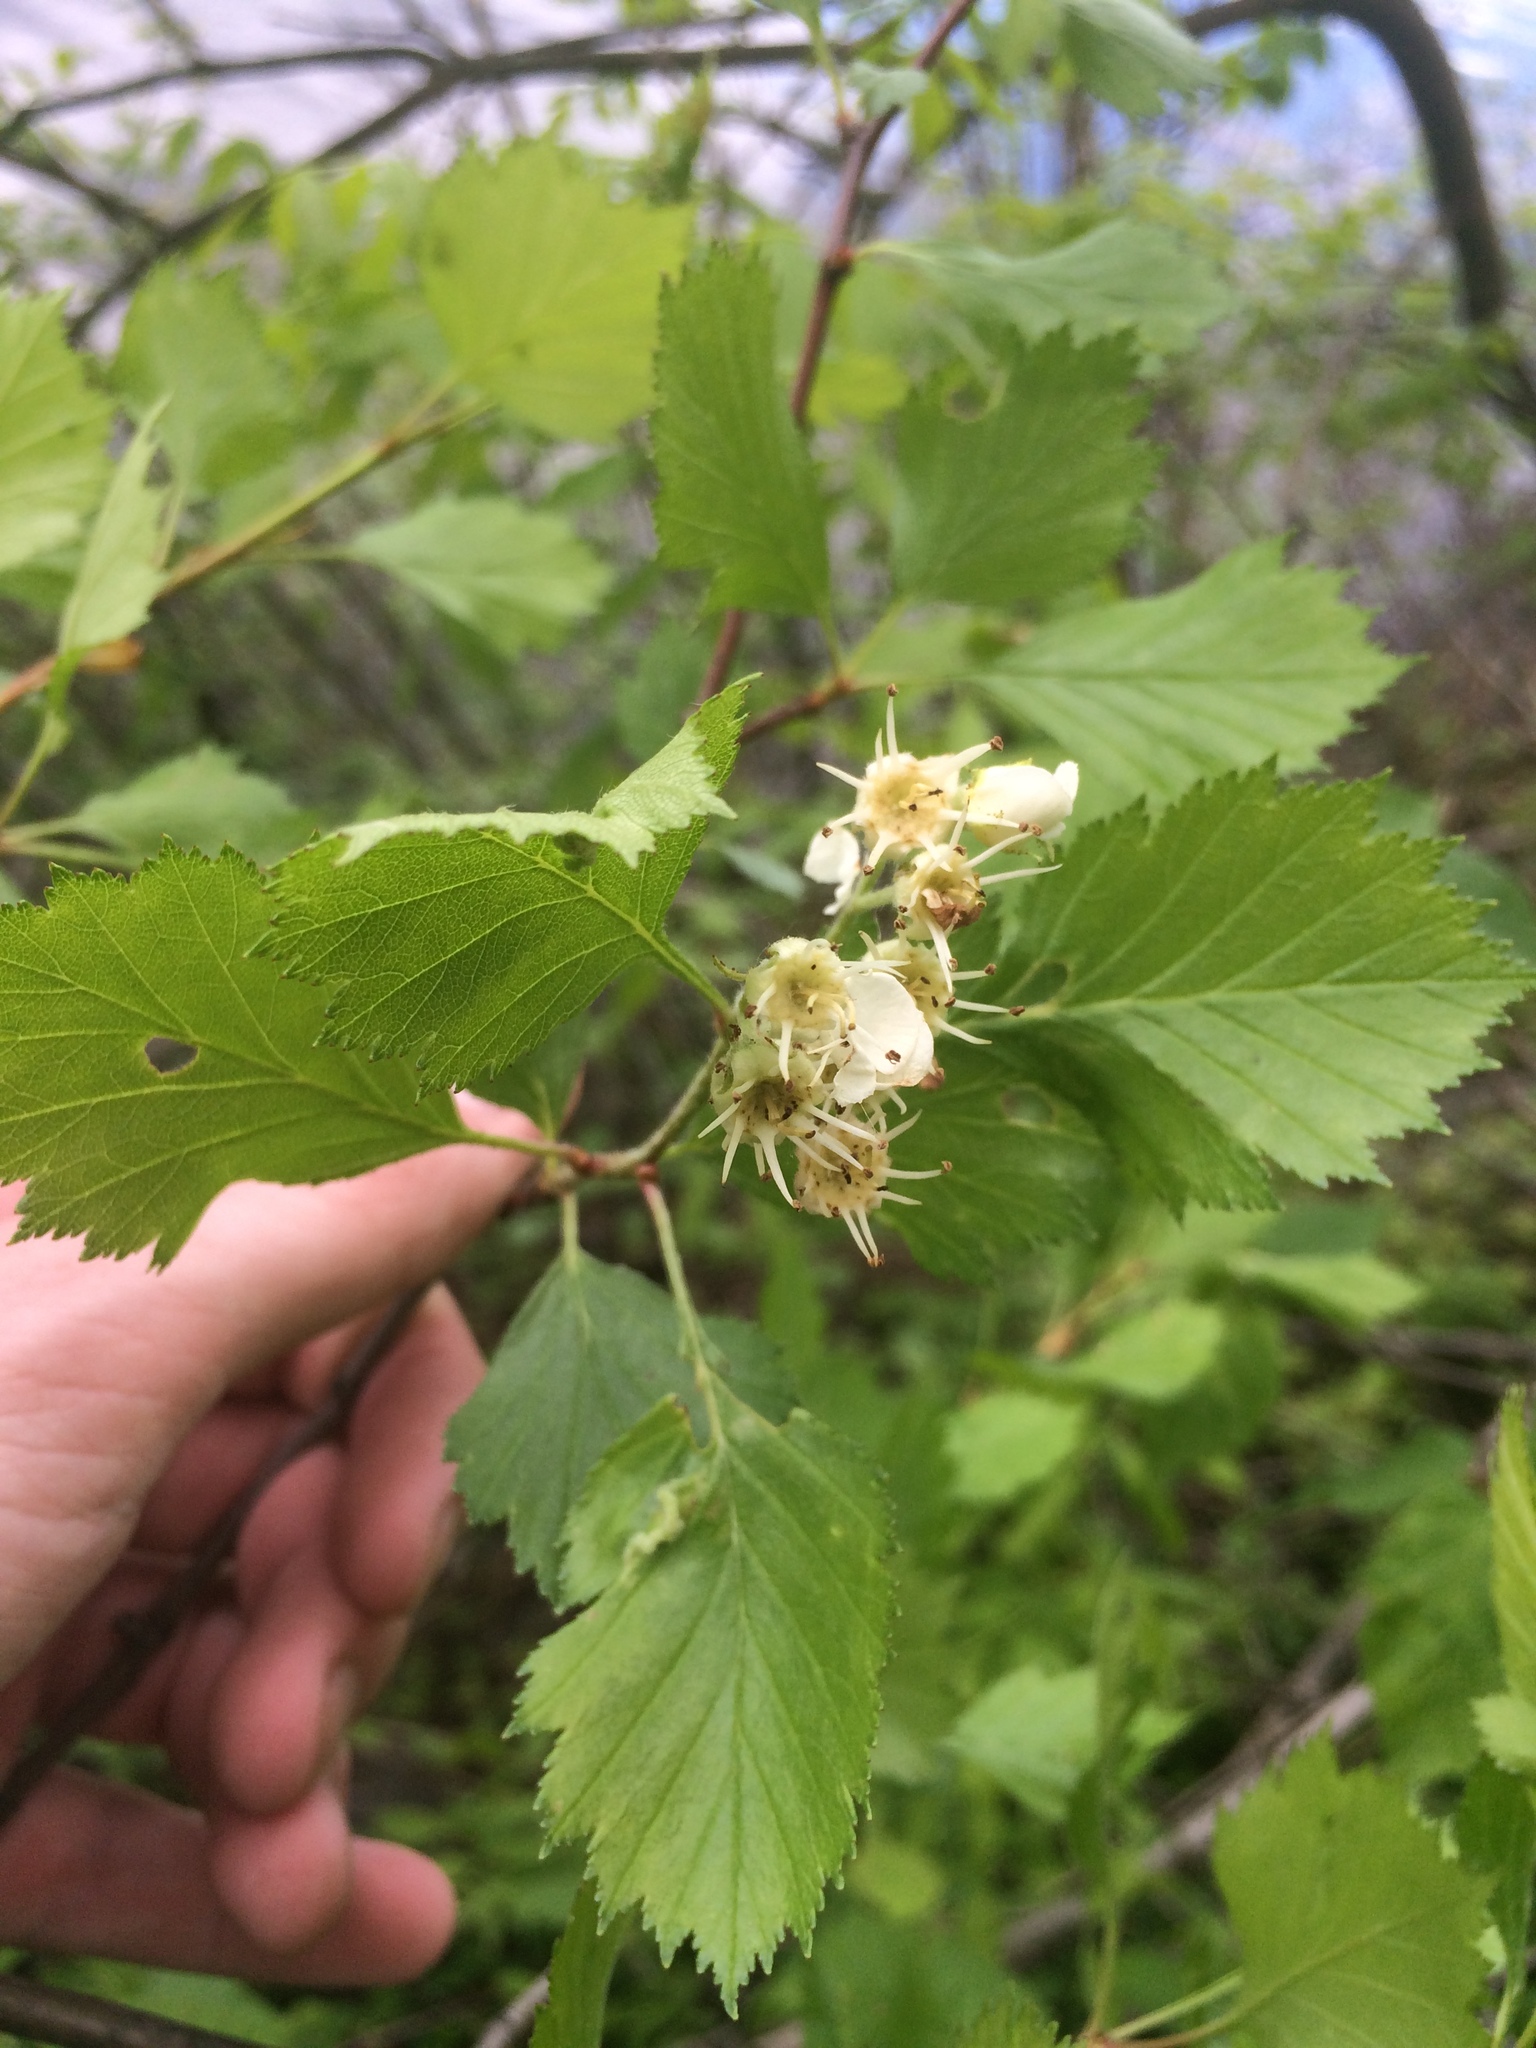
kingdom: Plantae
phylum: Tracheophyta
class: Magnoliopsida
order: Rosales
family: Rosaceae
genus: Crataegus
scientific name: Crataegus chrysocarpa
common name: Fire-berry hawthorn
